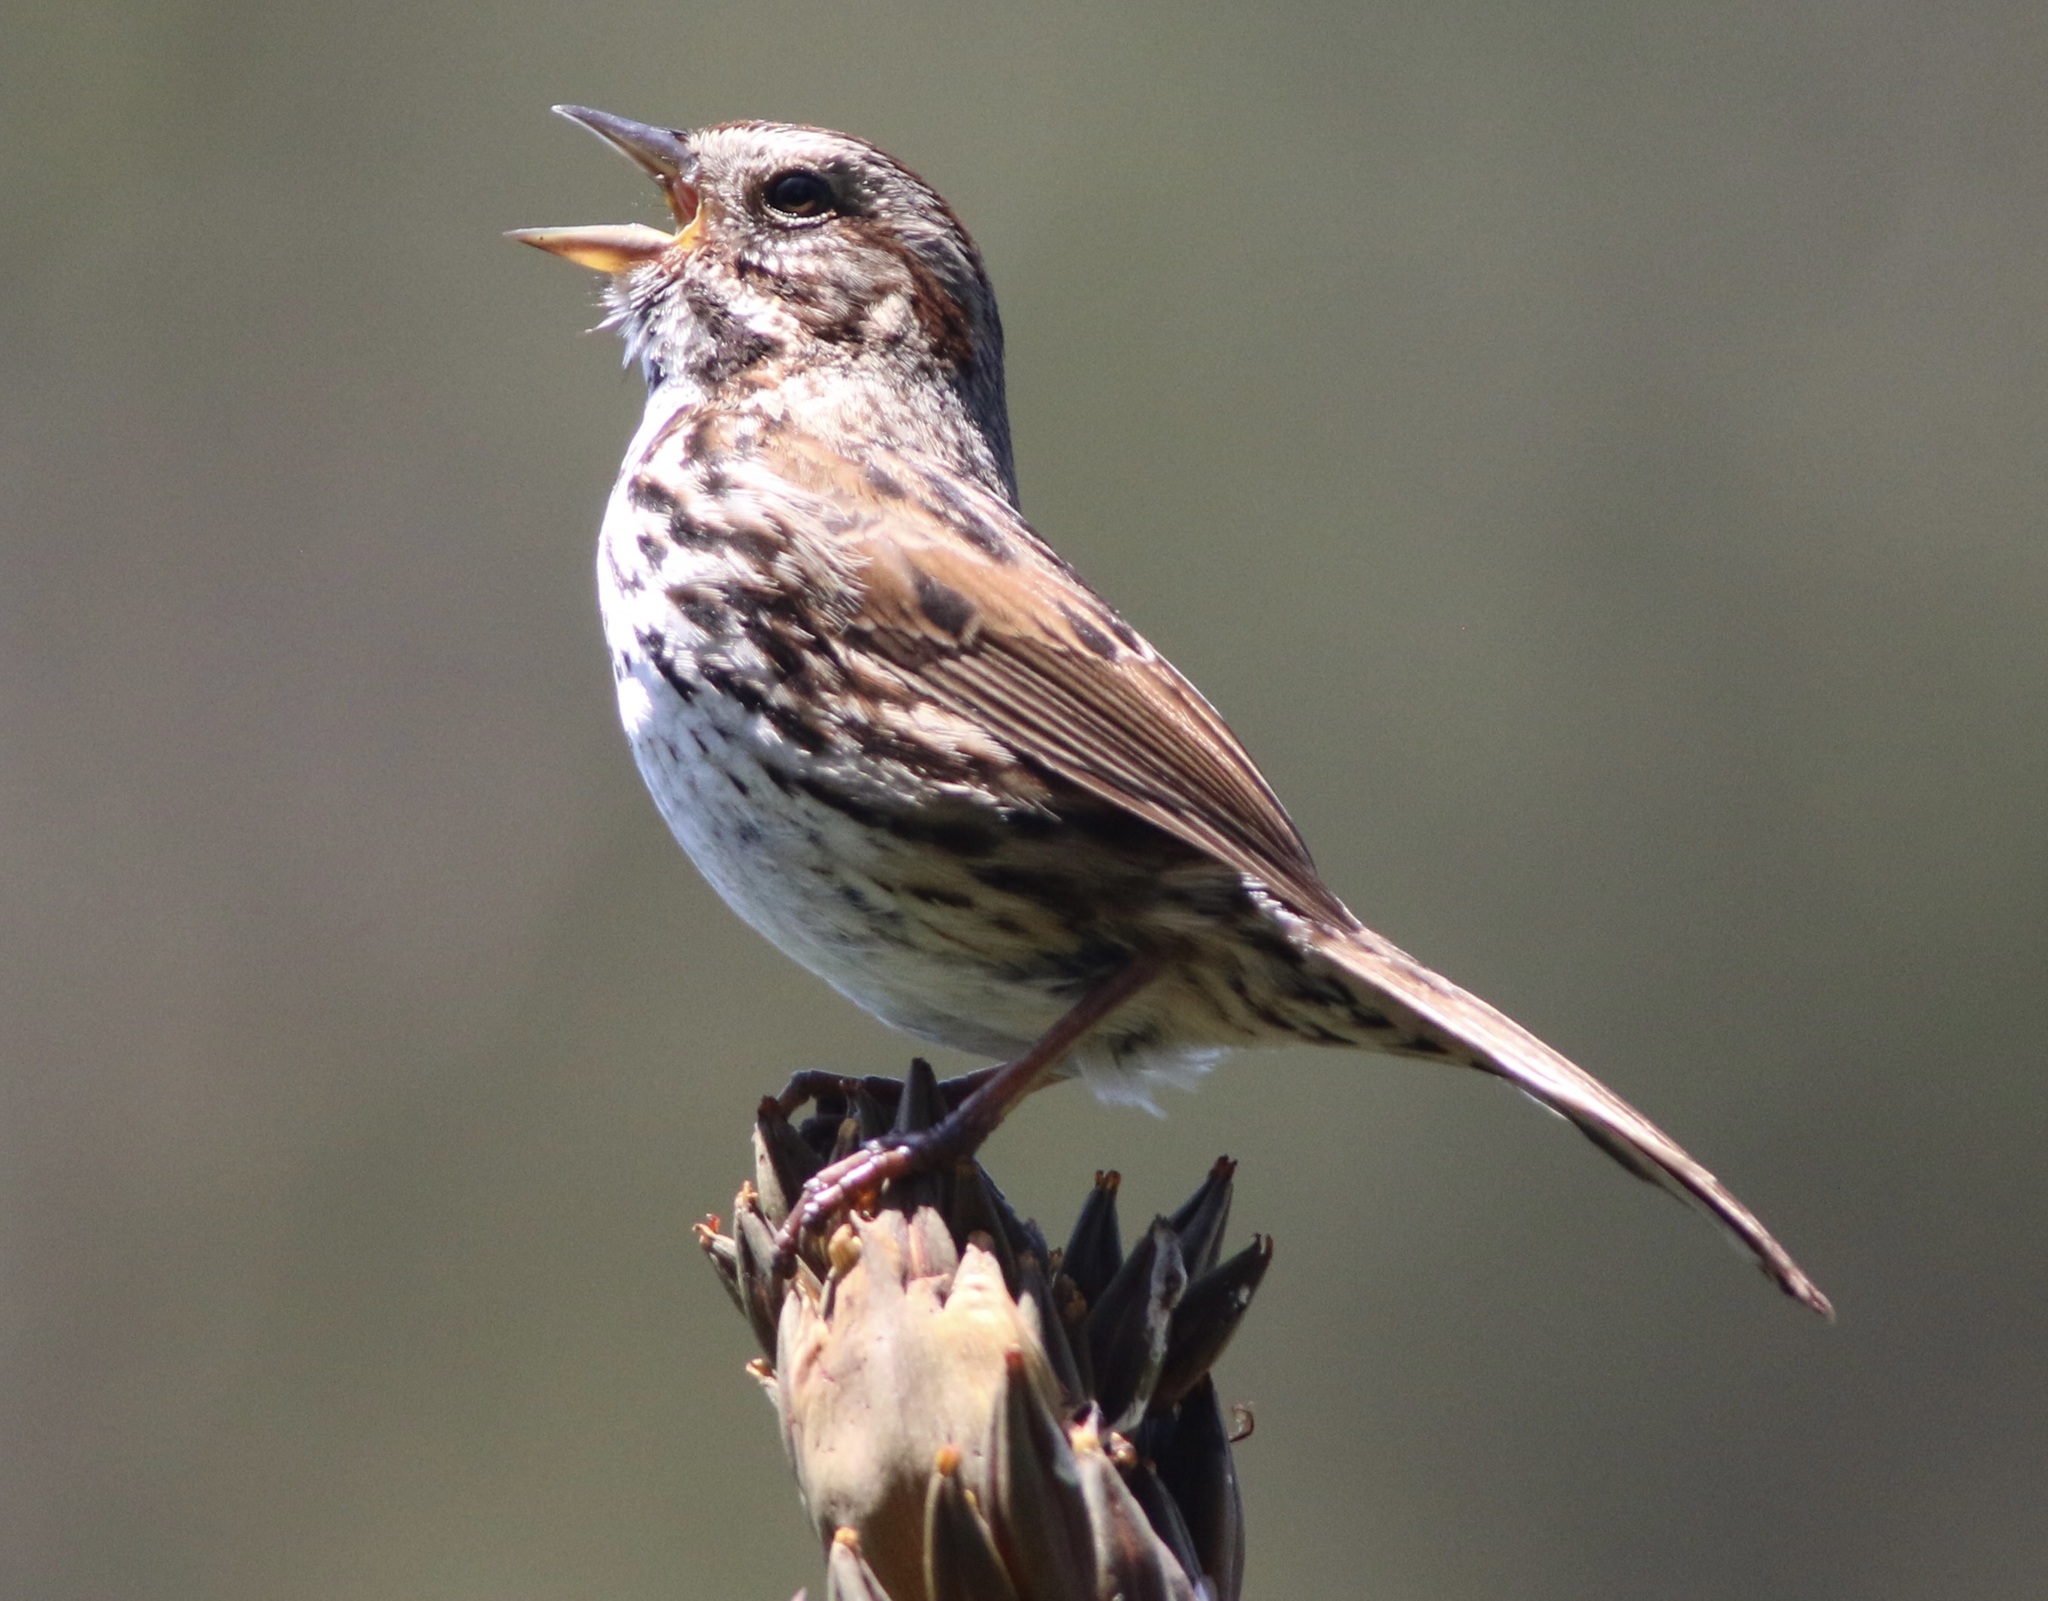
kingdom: Animalia
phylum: Chordata
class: Aves
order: Passeriformes
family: Passerellidae
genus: Melospiza
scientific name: Melospiza melodia
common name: Song sparrow
